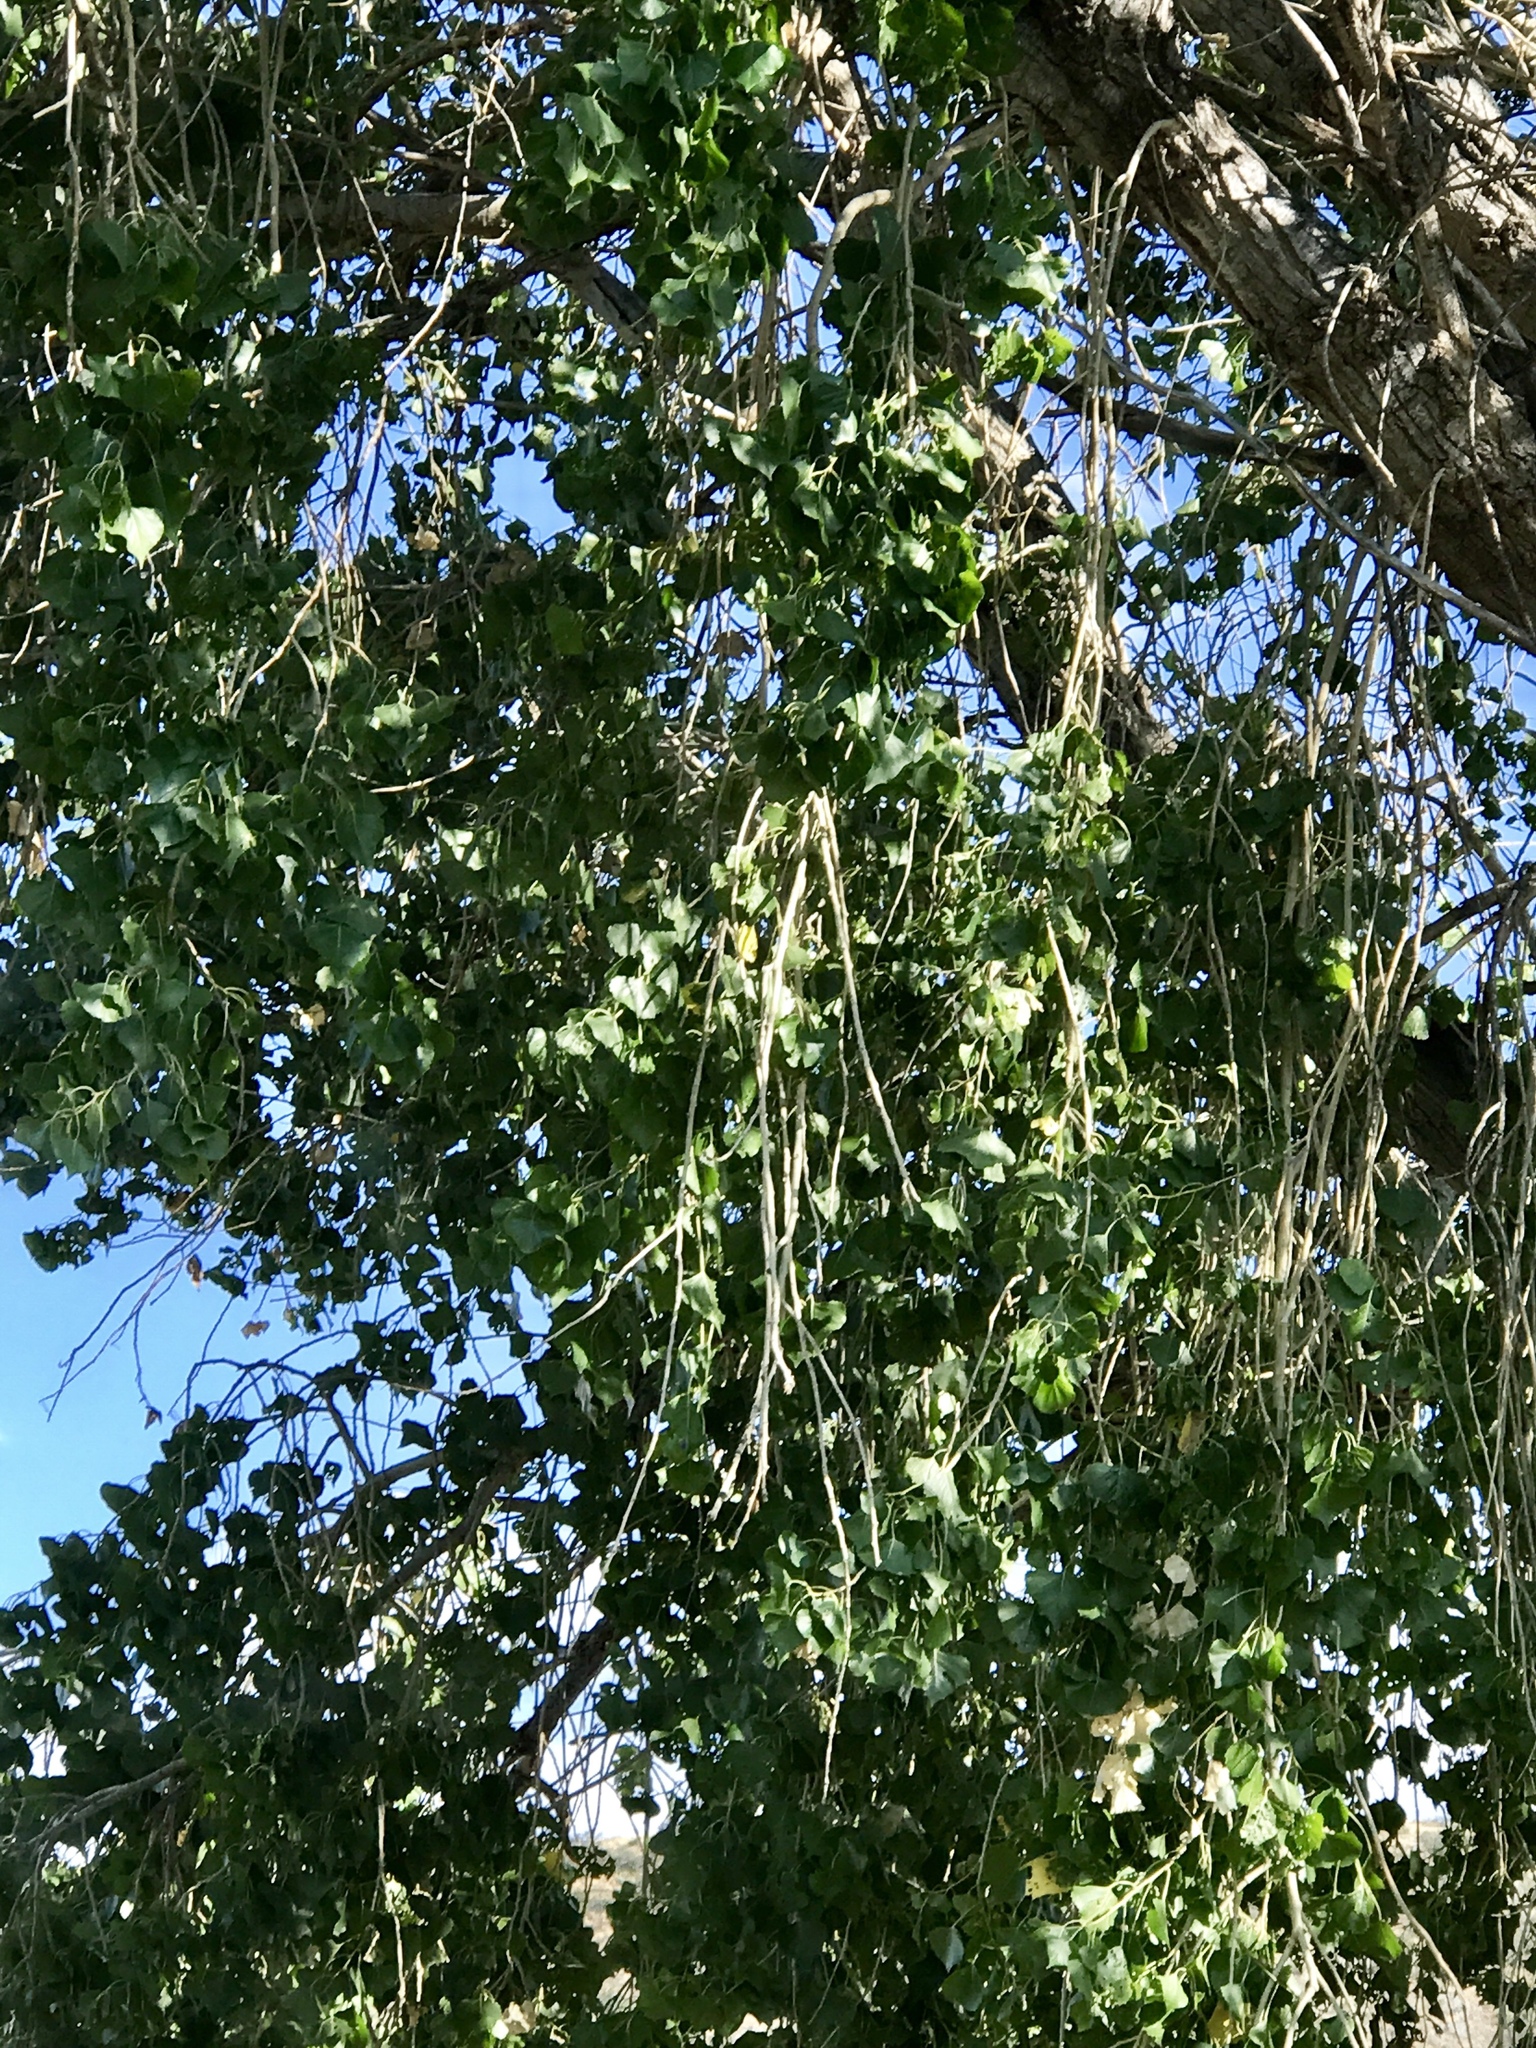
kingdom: Plantae
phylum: Tracheophyta
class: Magnoliopsida
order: Malpighiales
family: Salicaceae
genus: Populus
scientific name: Populus fremontii
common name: Fremont's cottonwood
